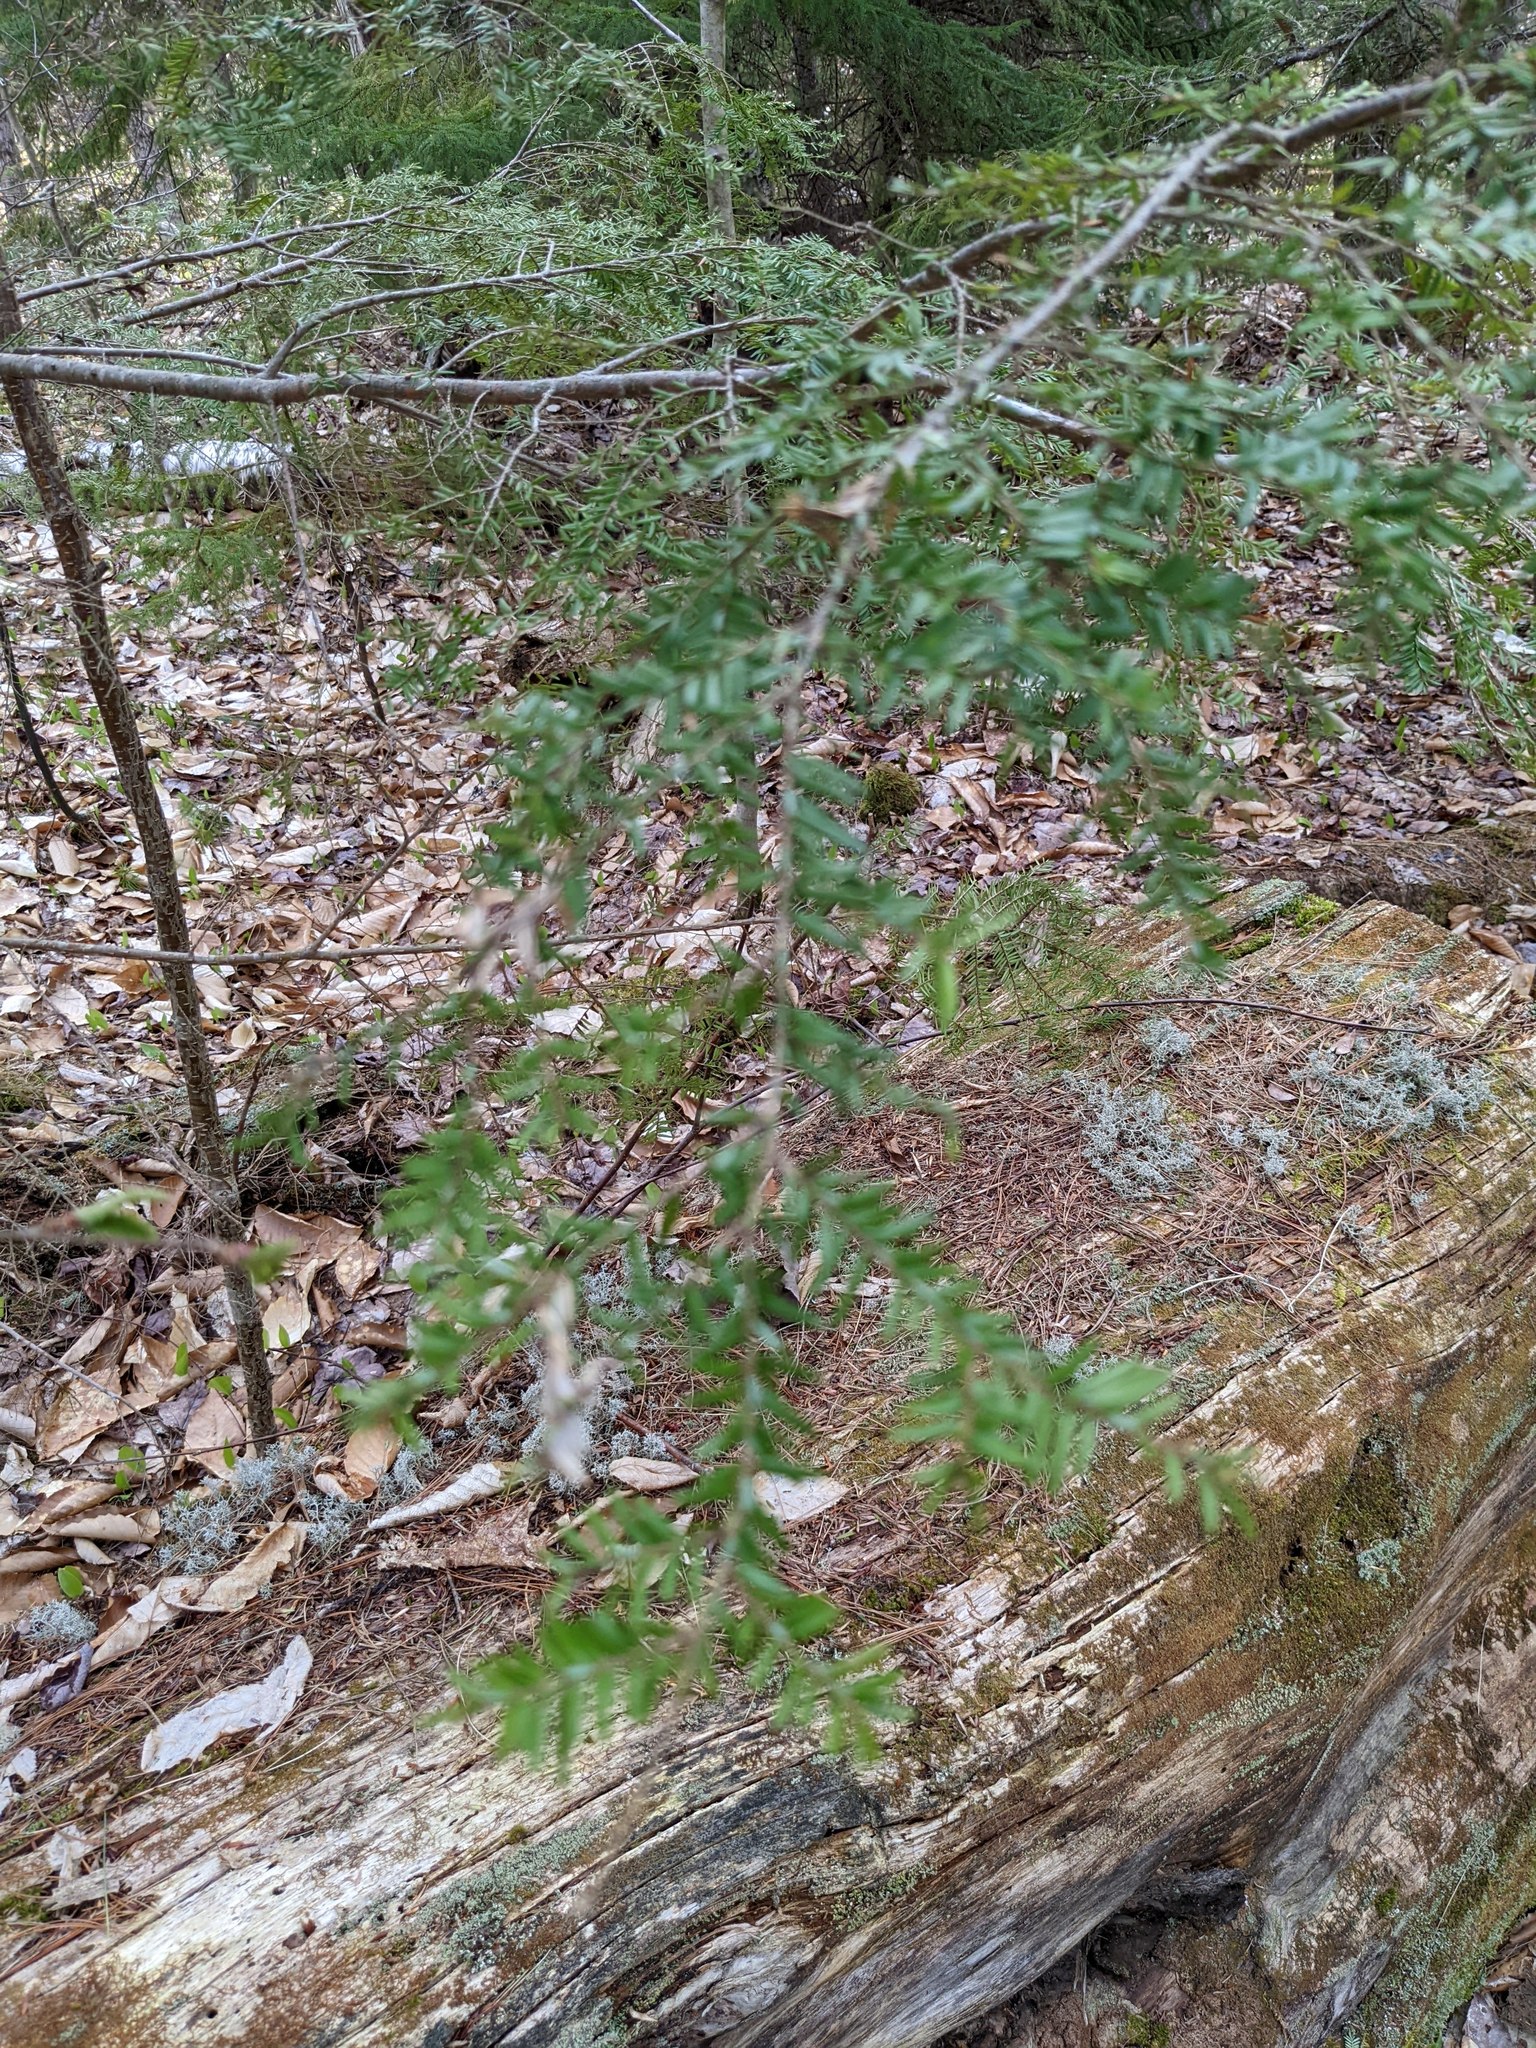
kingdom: Plantae
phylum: Tracheophyta
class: Pinopsida
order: Pinales
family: Pinaceae
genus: Tsuga
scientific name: Tsuga canadensis
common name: Eastern hemlock
